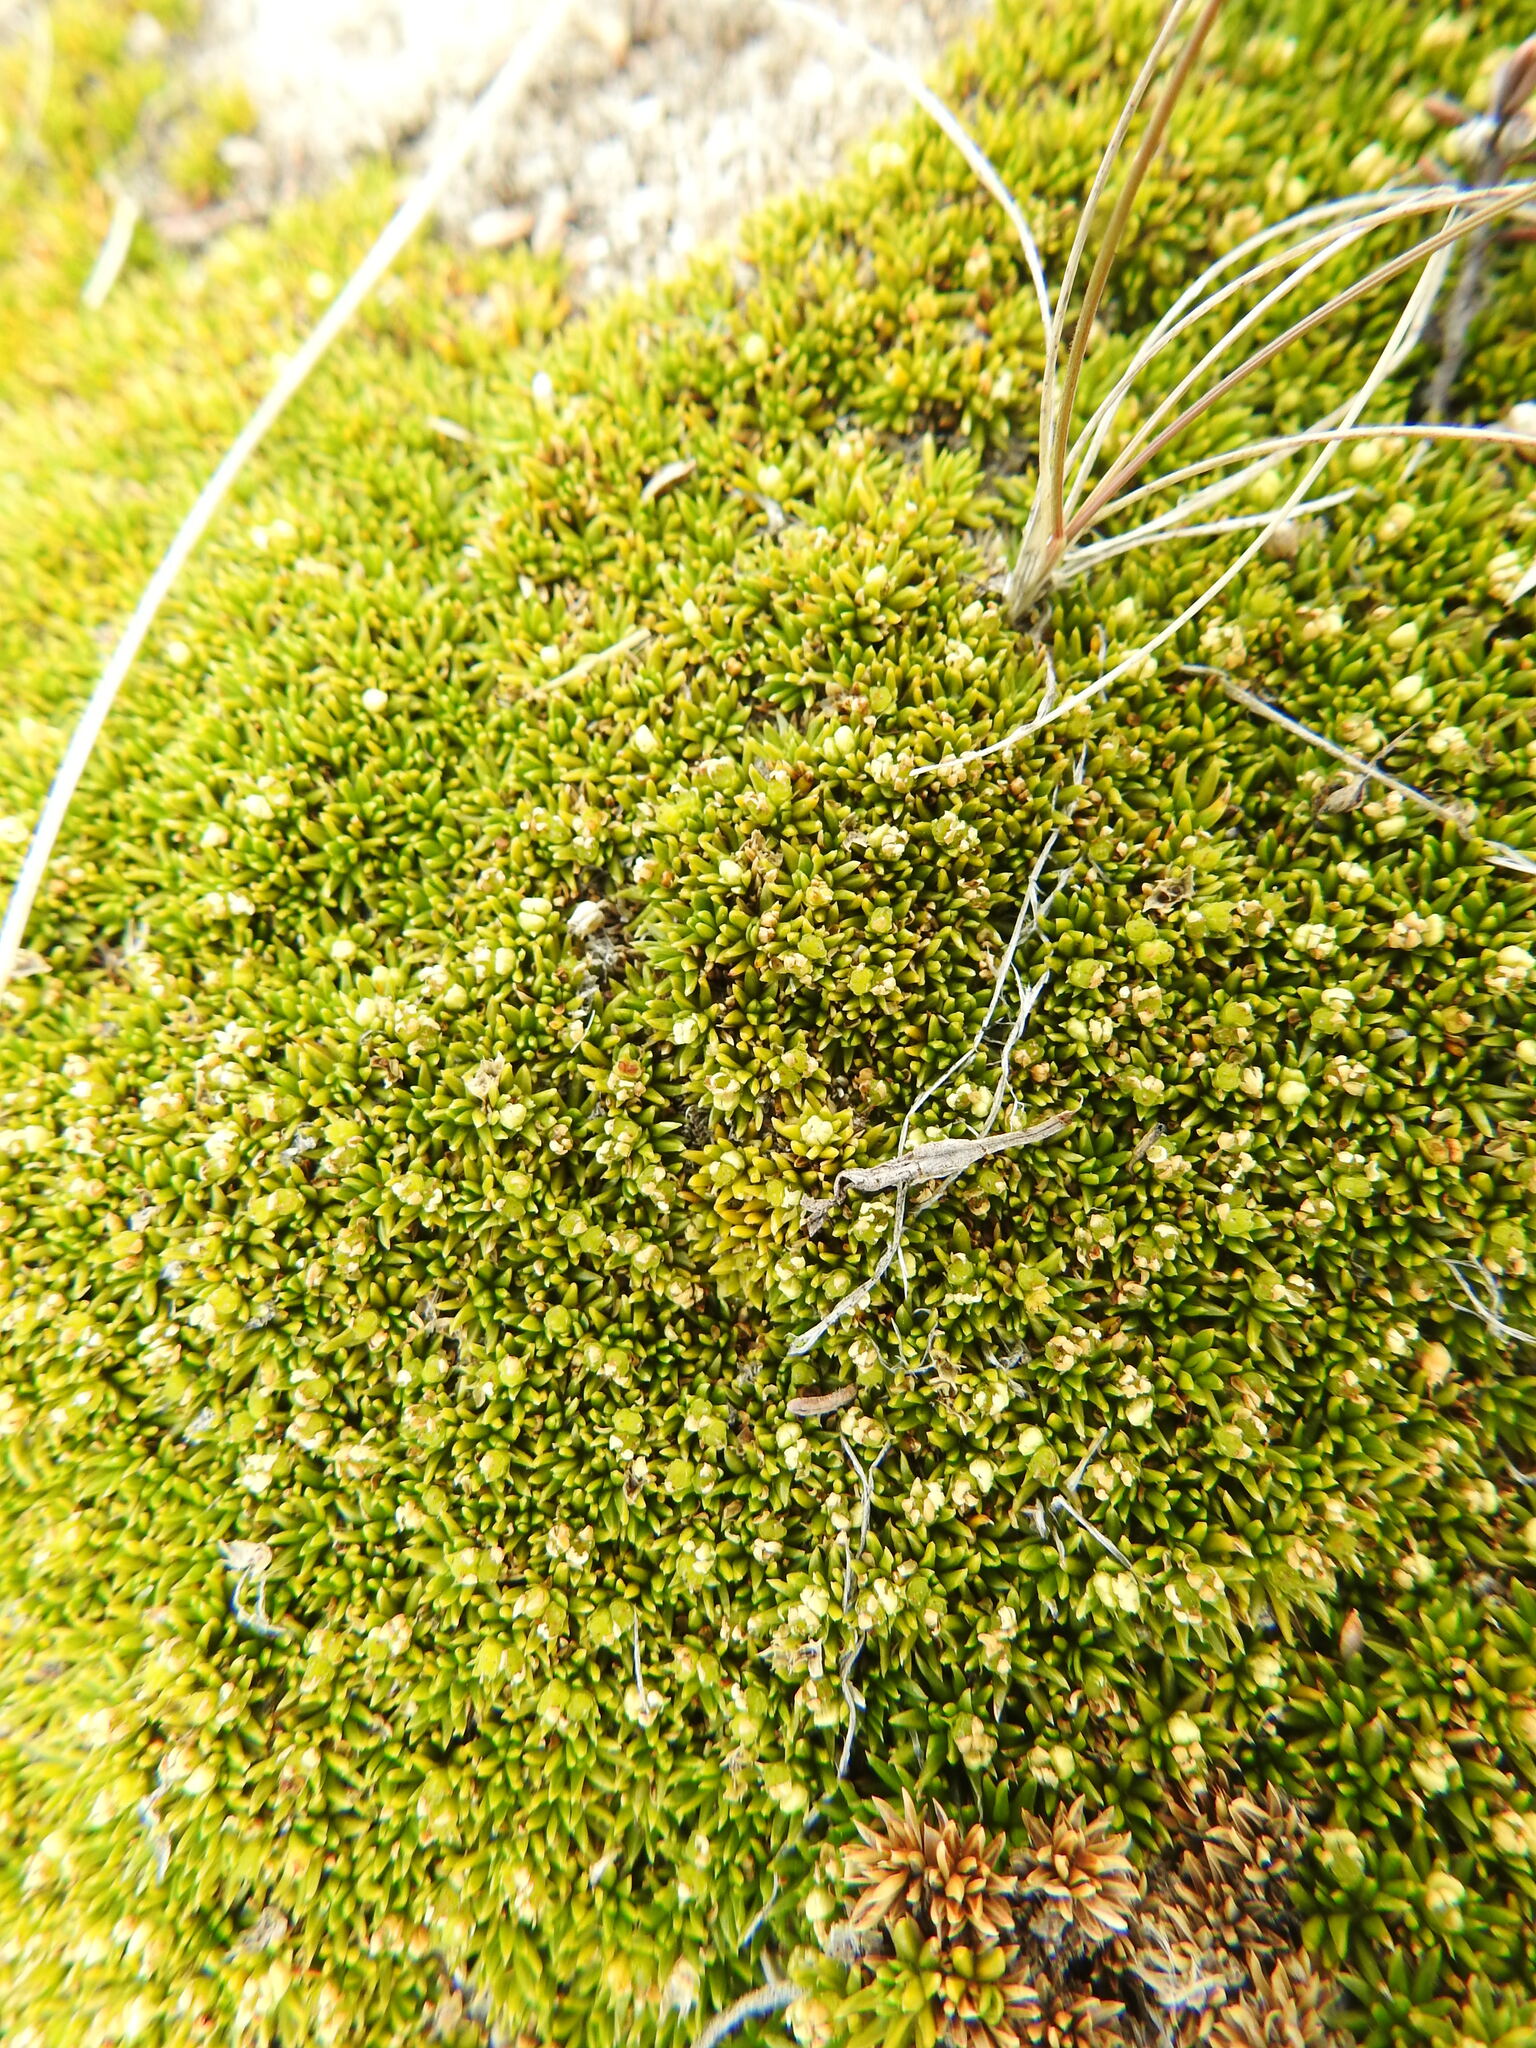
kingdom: Plantae
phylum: Tracheophyta
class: Magnoliopsida
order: Apiales
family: Apiaceae
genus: Azorella
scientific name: Azorella lycopodioides
